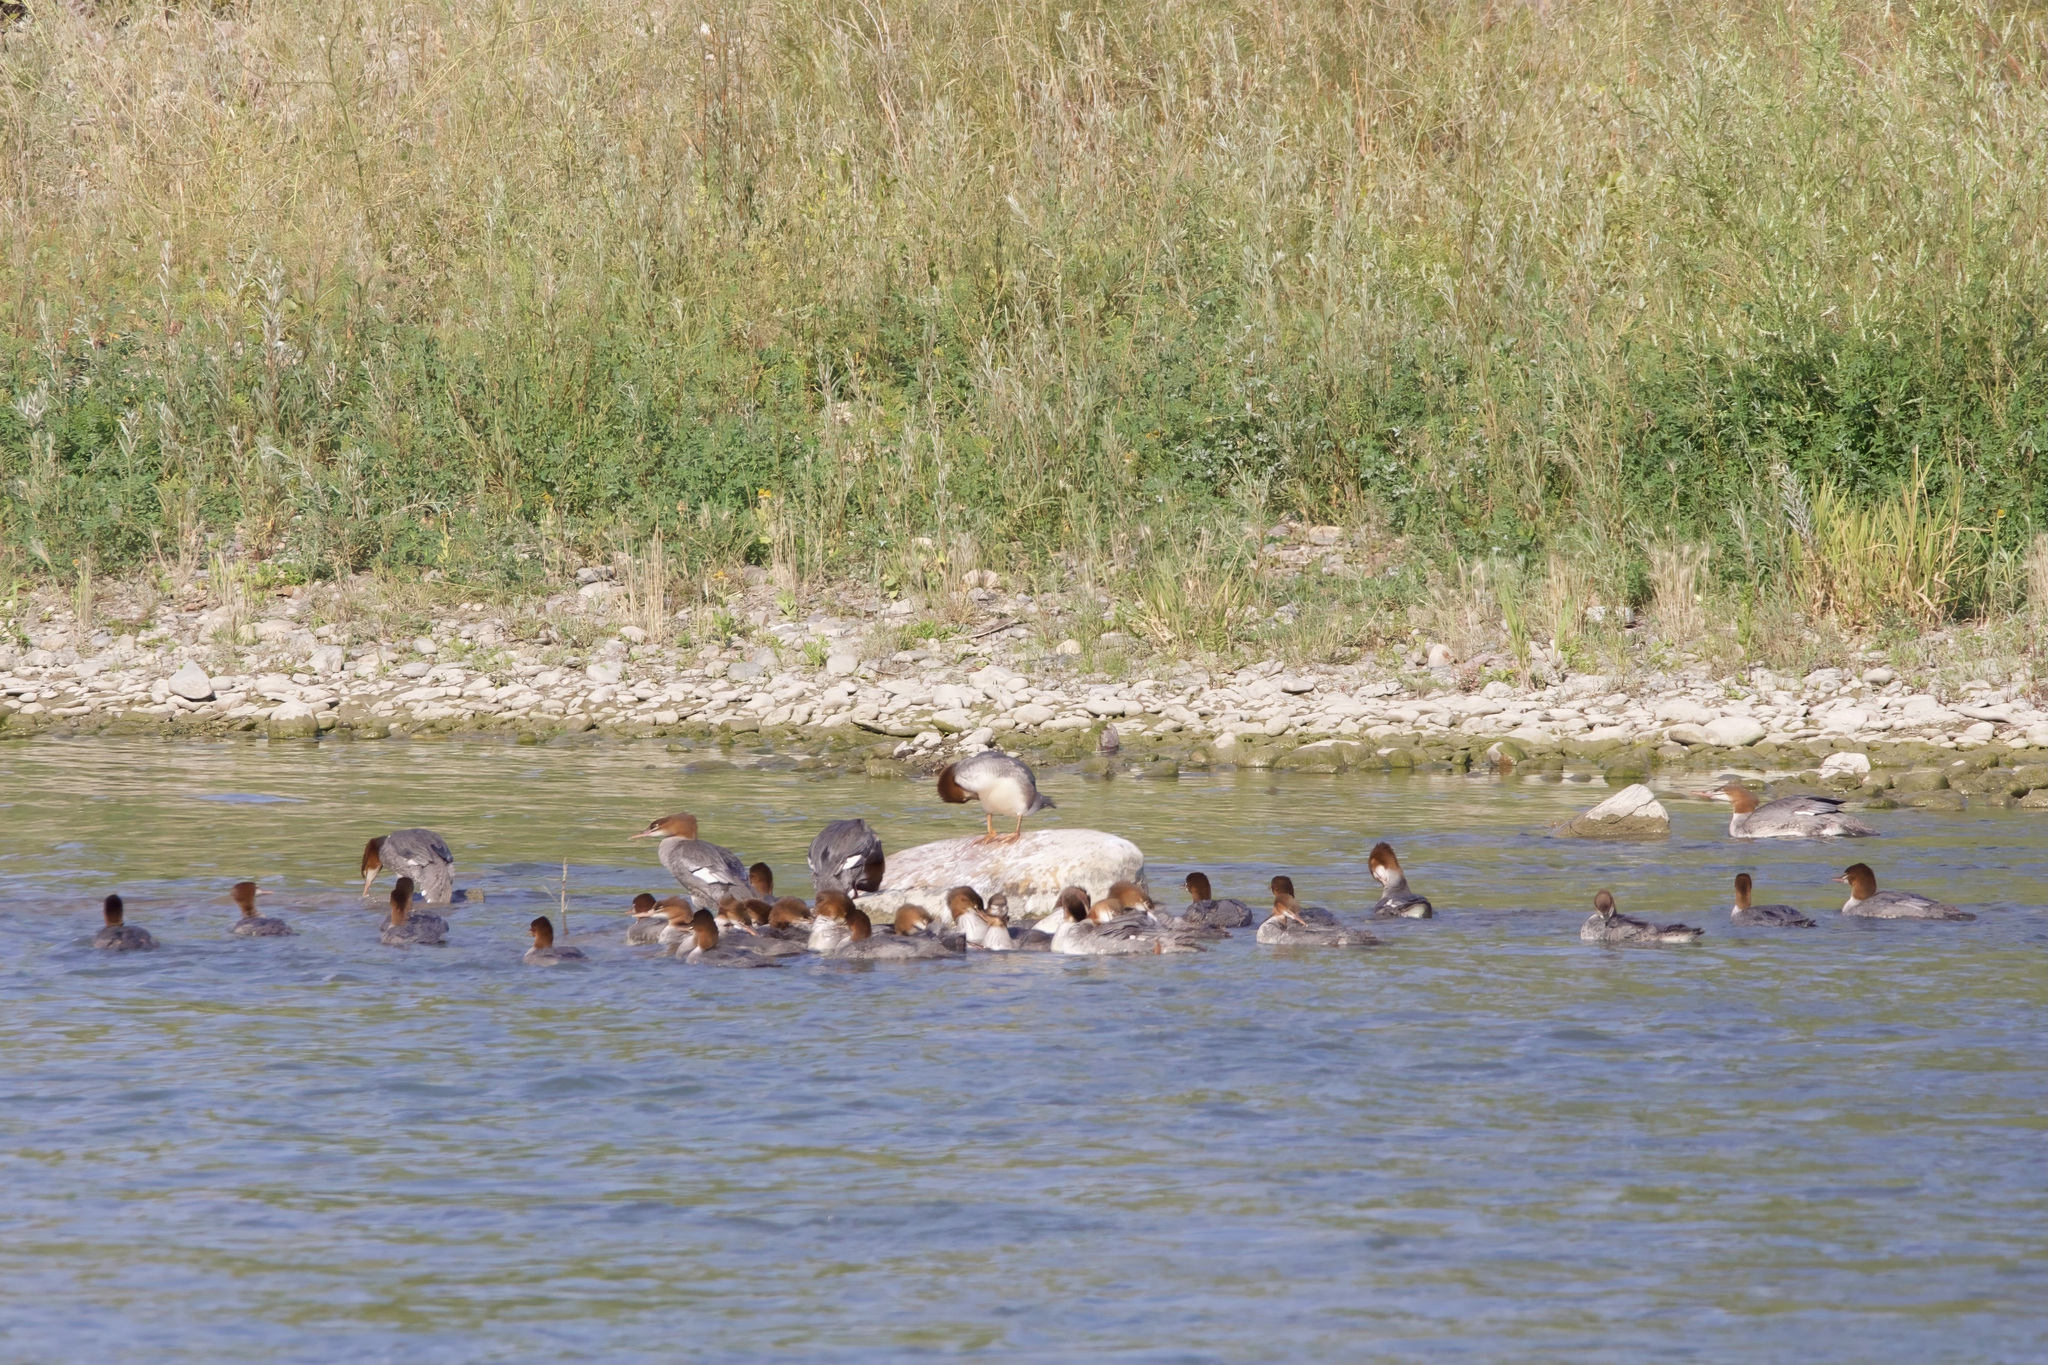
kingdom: Animalia
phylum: Chordata
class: Aves
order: Anseriformes
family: Anatidae
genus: Mergus
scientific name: Mergus merganser
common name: Common merganser
